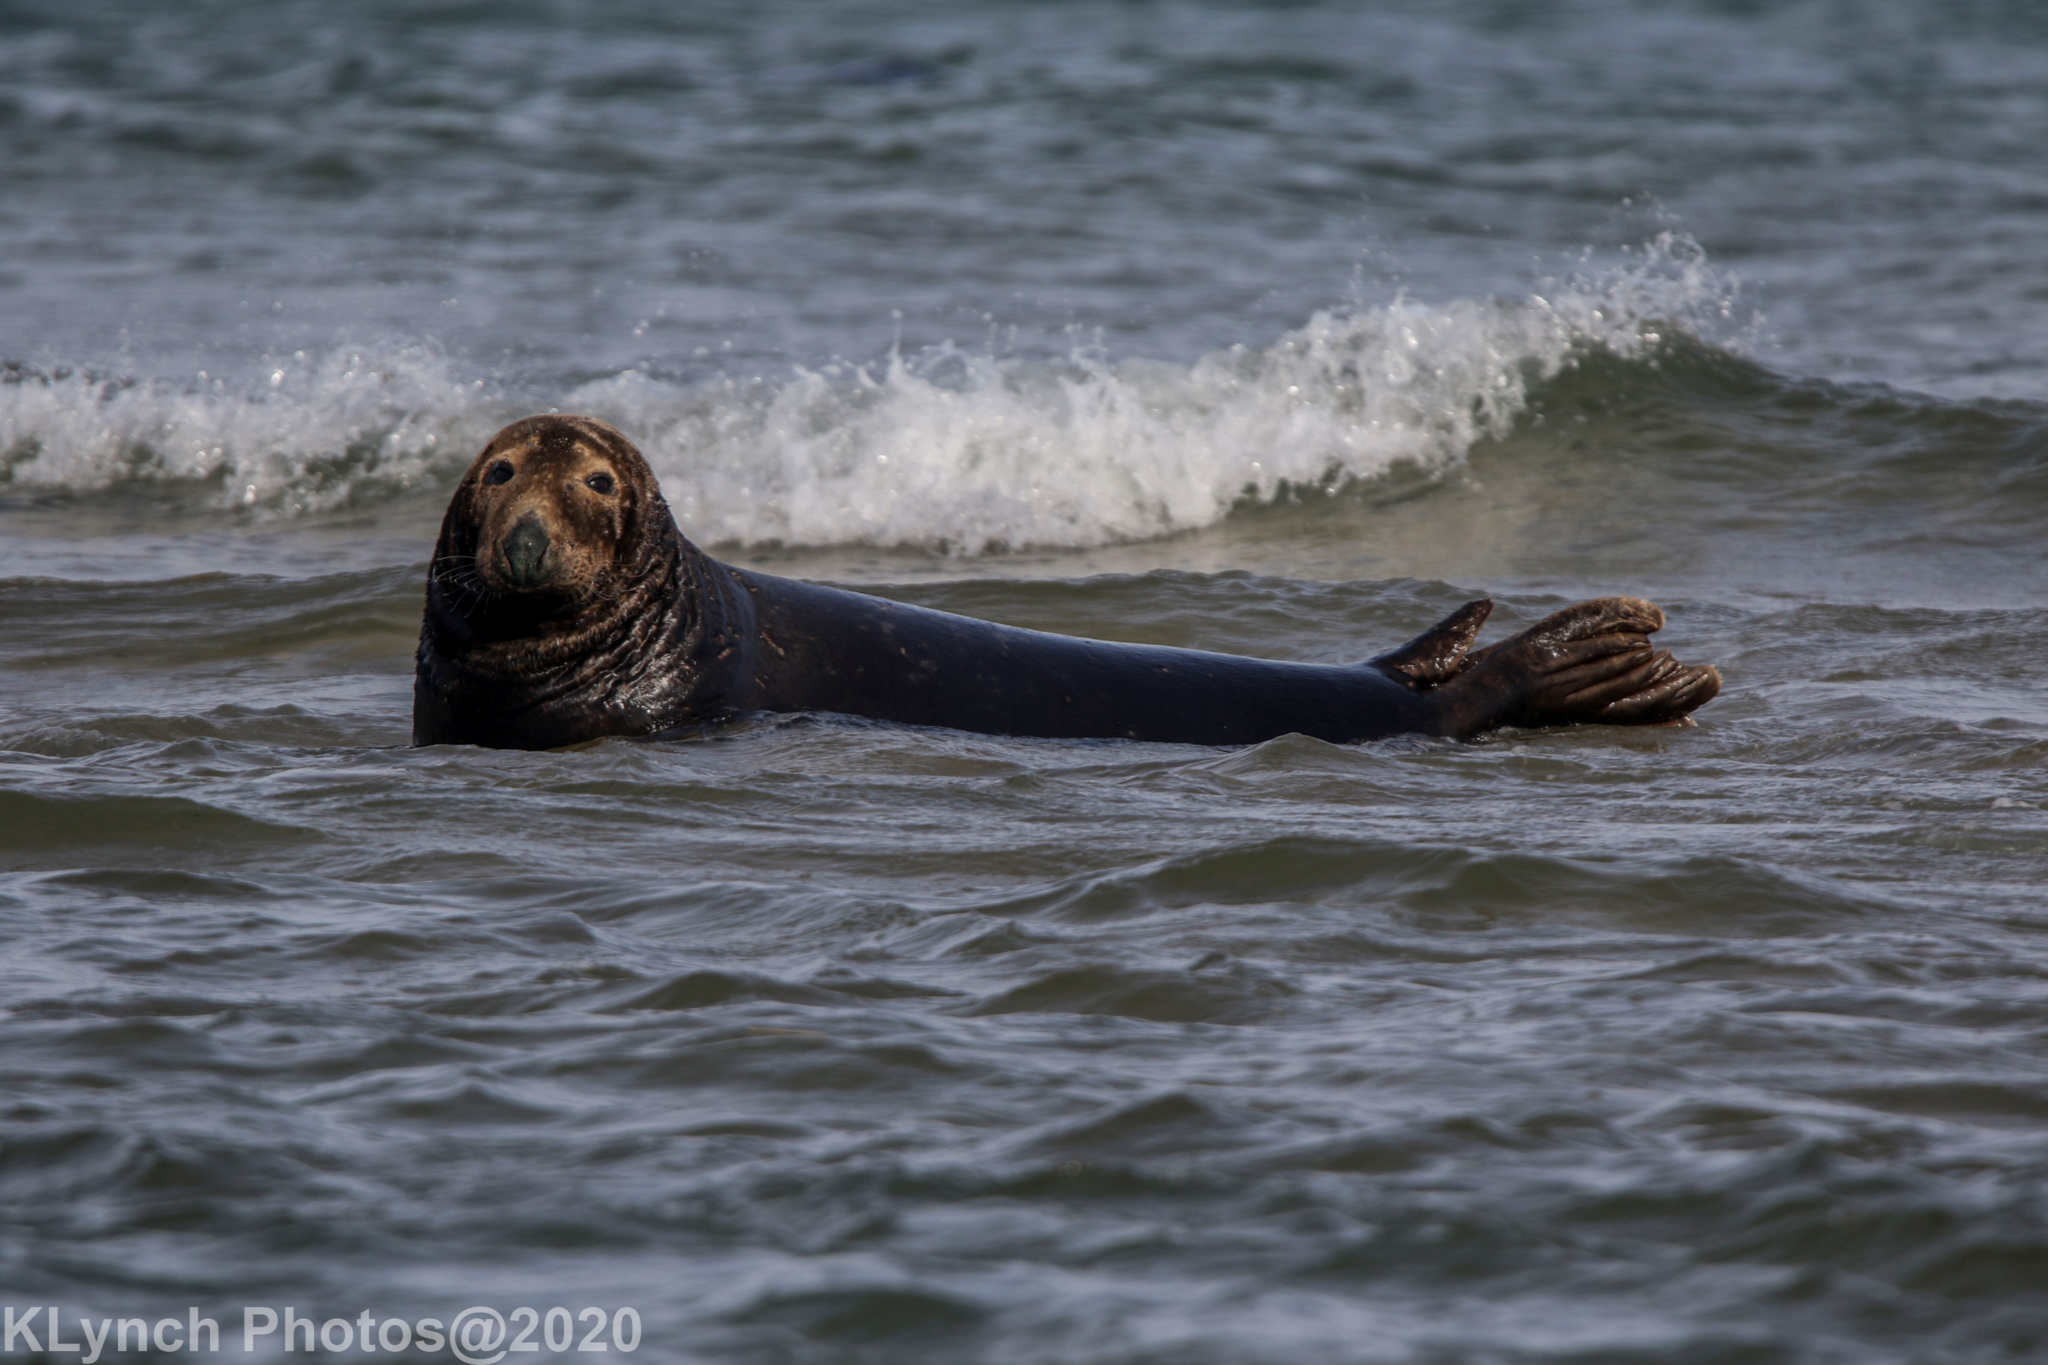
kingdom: Animalia
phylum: Chordata
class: Mammalia
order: Carnivora
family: Phocidae
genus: Halichoerus
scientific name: Halichoerus grypus
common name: Grey seal
